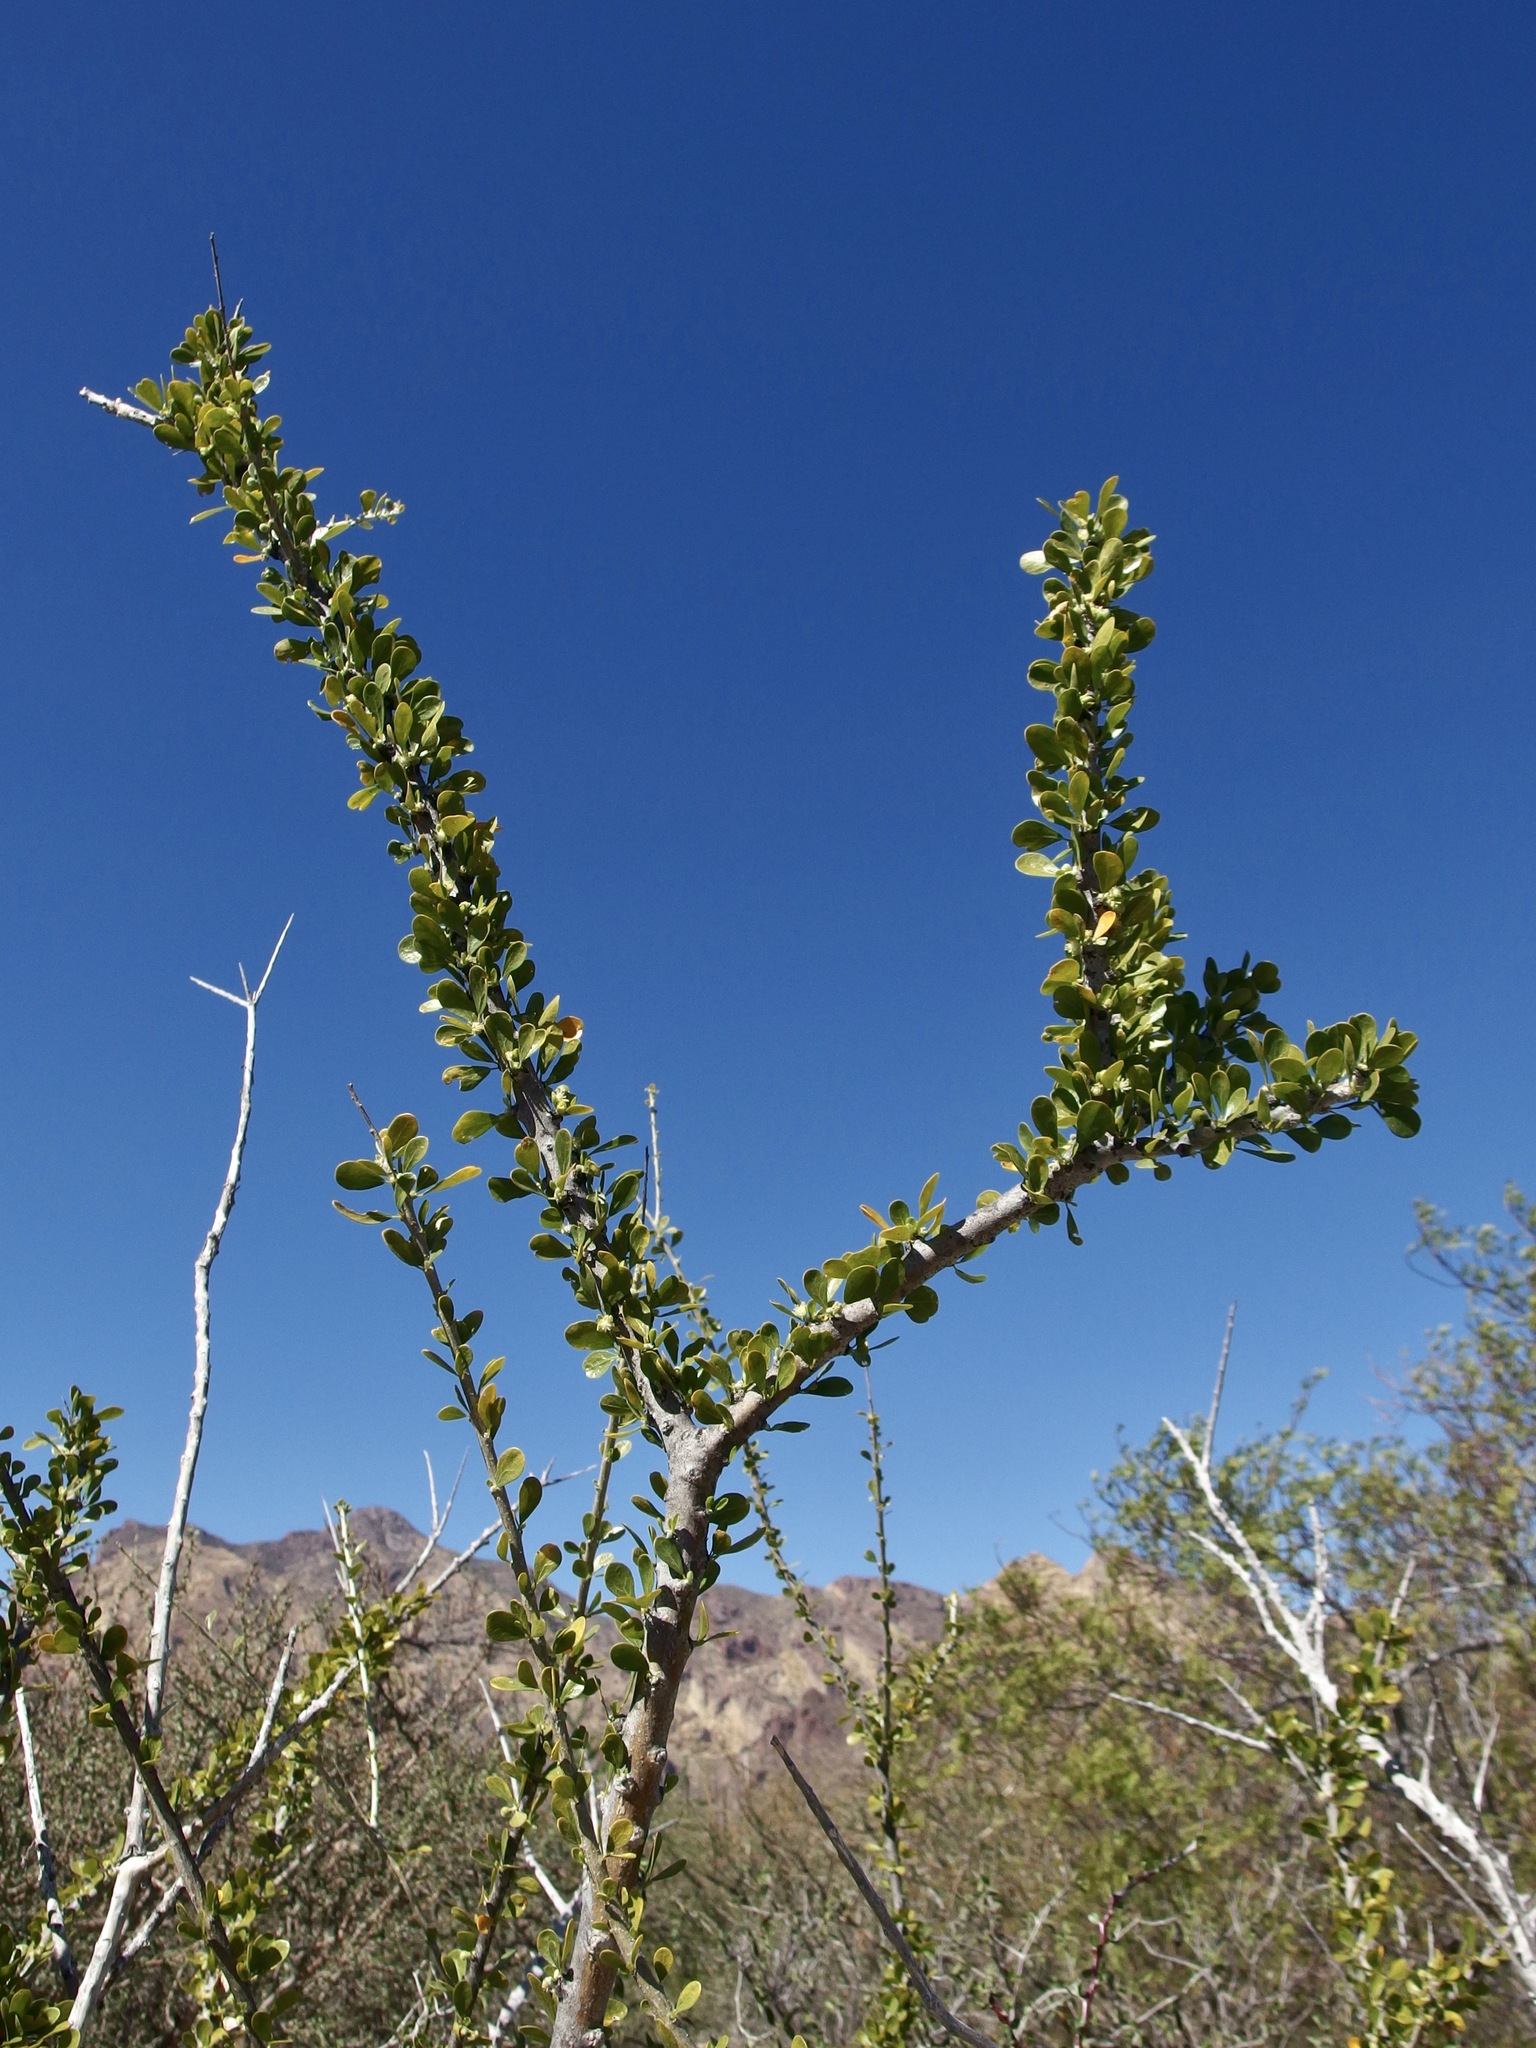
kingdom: Plantae
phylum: Tracheophyta
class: Magnoliopsida
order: Malpighiales
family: Euphorbiaceae
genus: Adelia
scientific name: Adelia obovata
